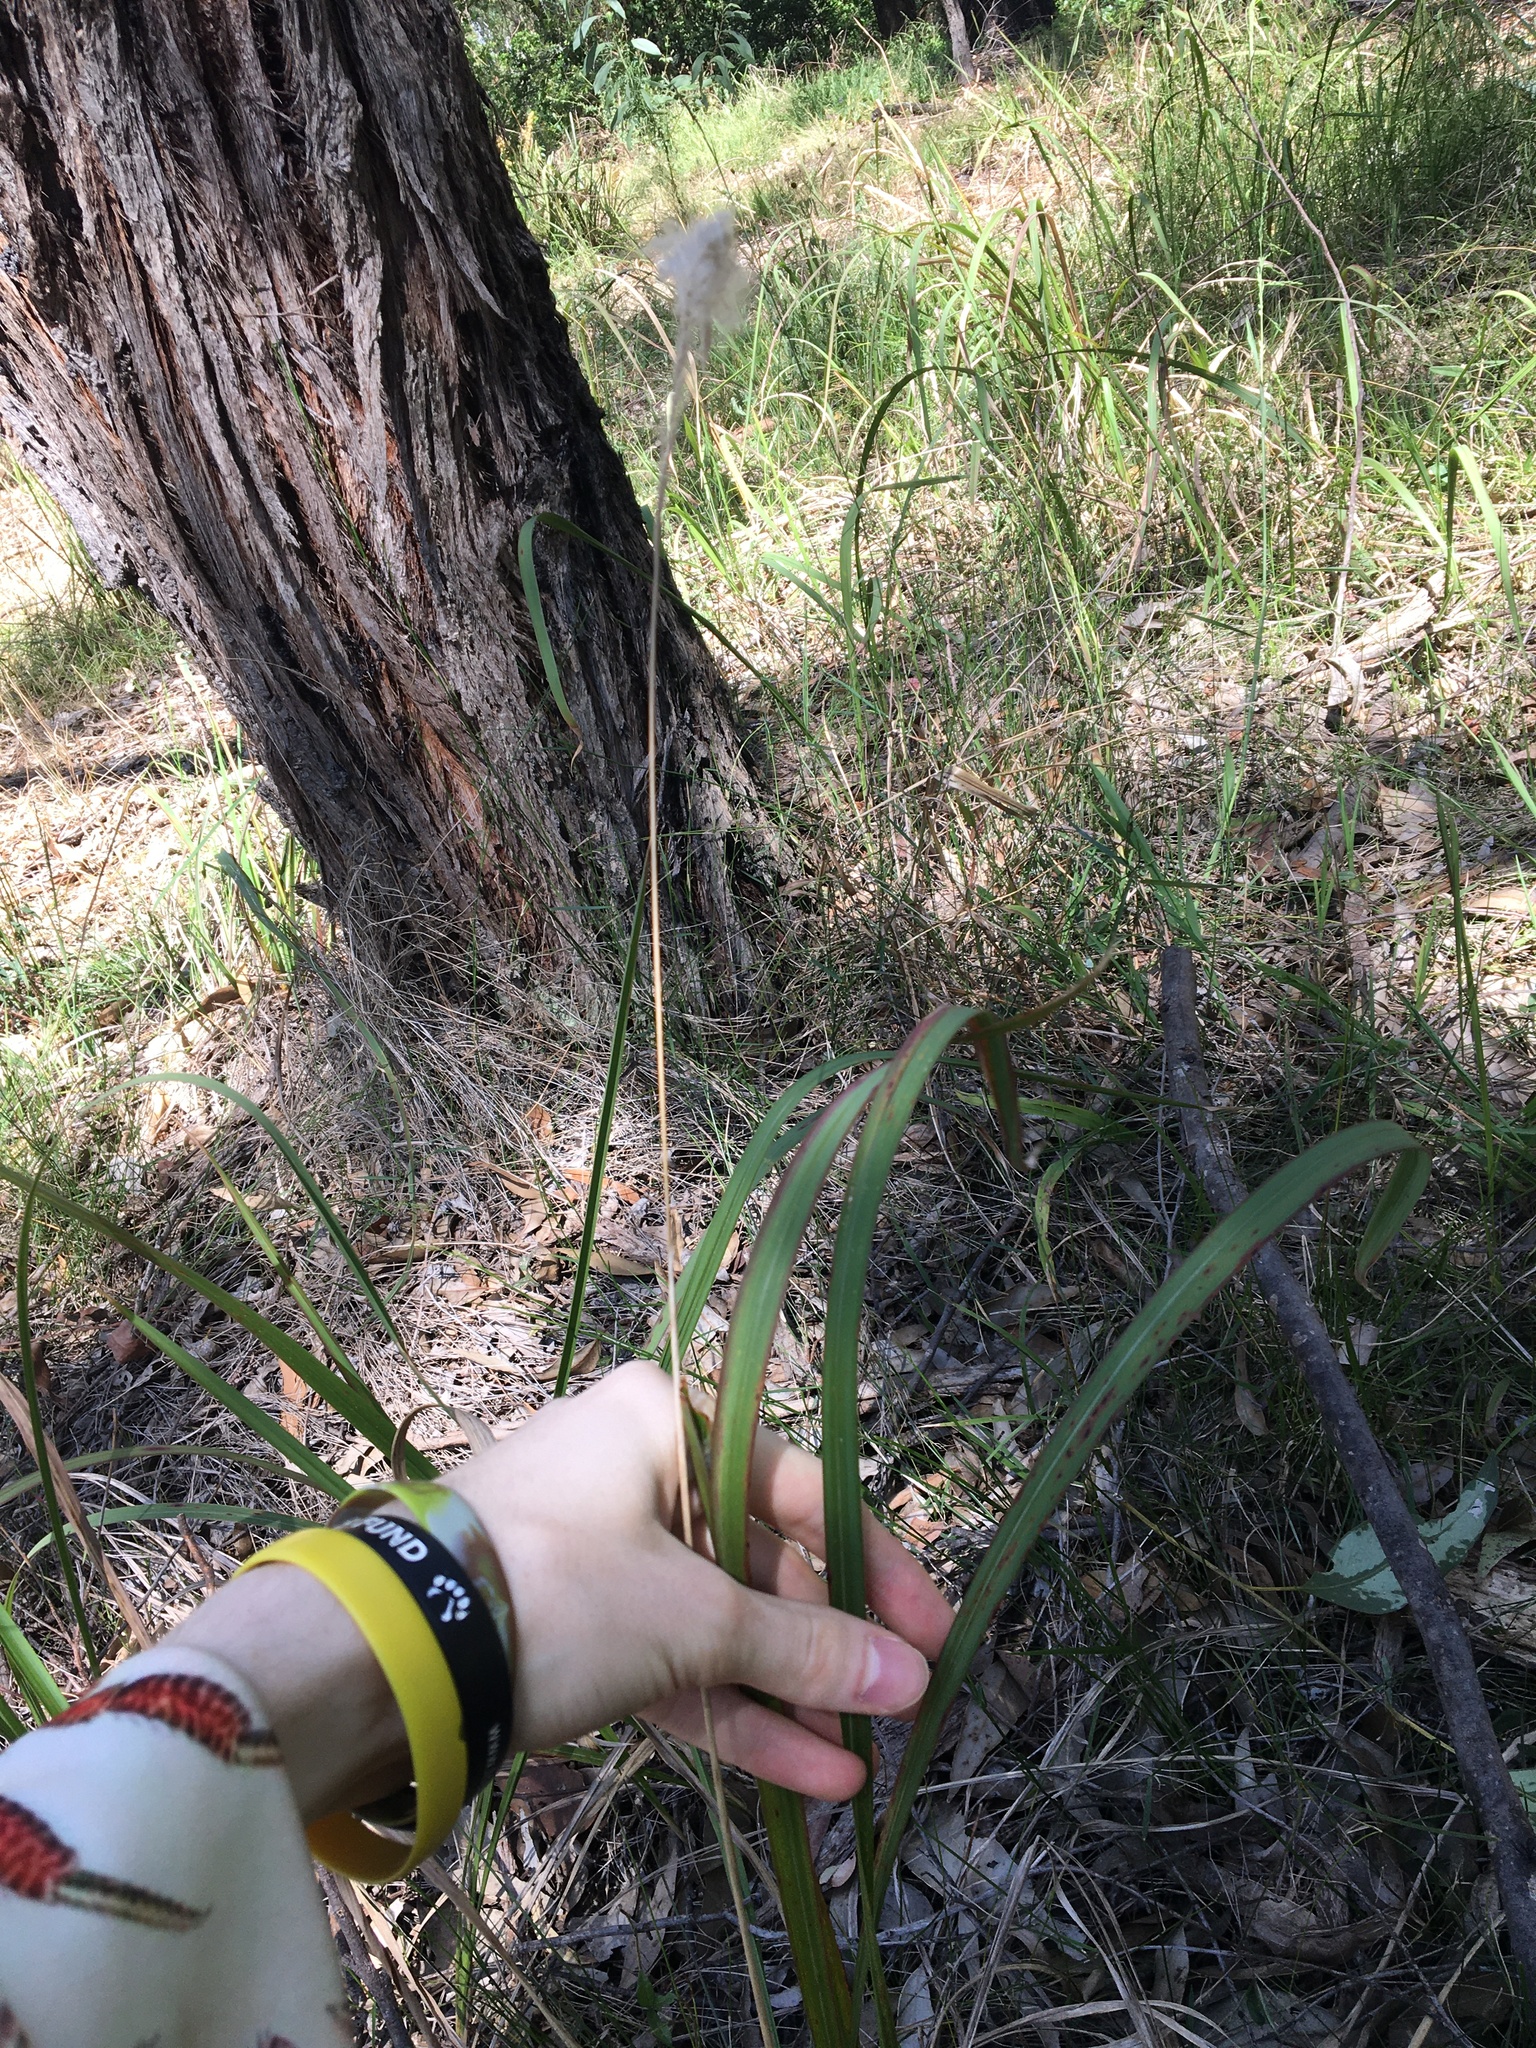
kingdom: Plantae
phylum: Tracheophyta
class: Liliopsida
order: Poales
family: Poaceae
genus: Imperata
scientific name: Imperata cylindrica
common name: Cogongrass
